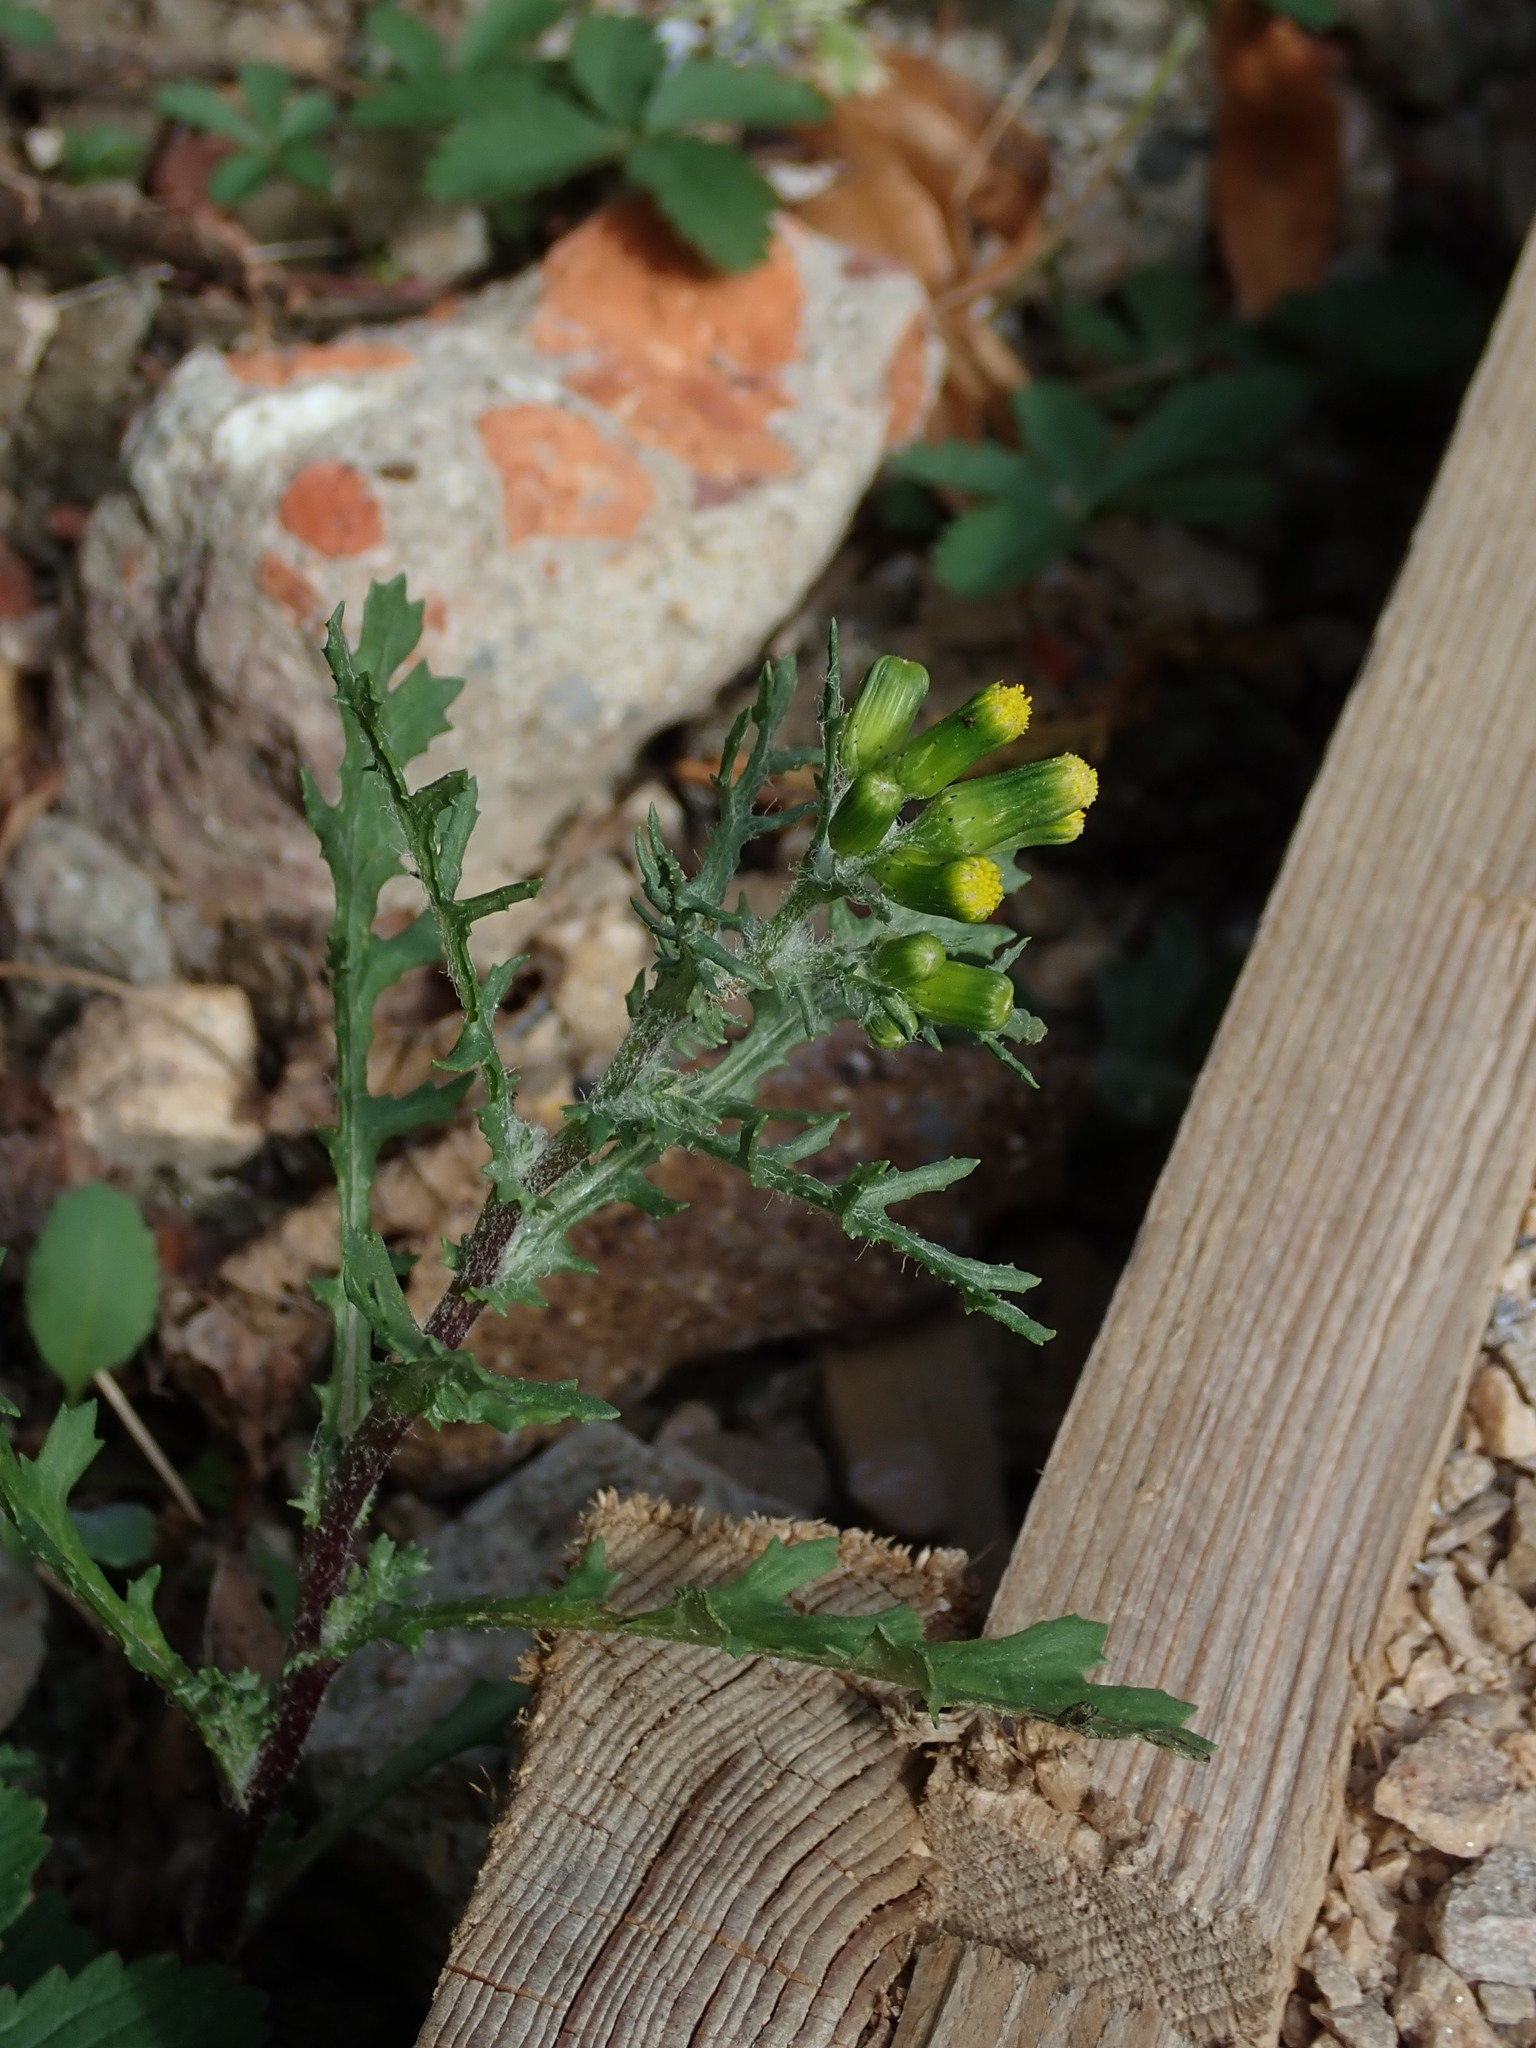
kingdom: Plantae
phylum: Tracheophyta
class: Magnoliopsida
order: Asterales
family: Asteraceae
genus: Senecio
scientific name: Senecio vulgaris
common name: Old-man-in-the-spring
